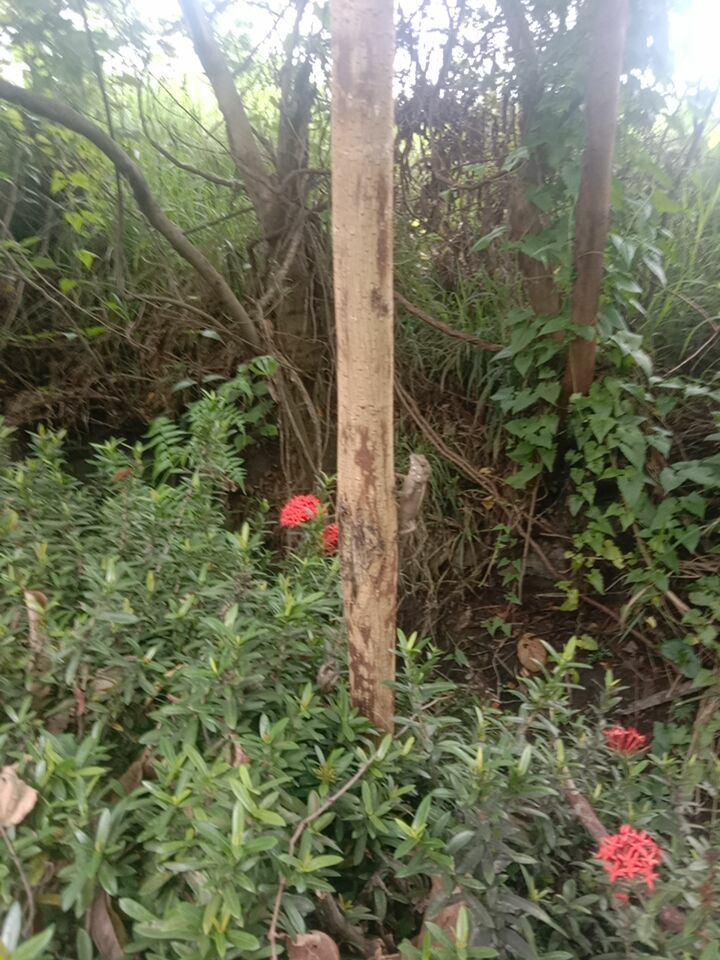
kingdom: Animalia
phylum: Chordata
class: Squamata
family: Agamidae
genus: Diploderma
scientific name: Diploderma swinhonis
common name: Taiwan japalure
